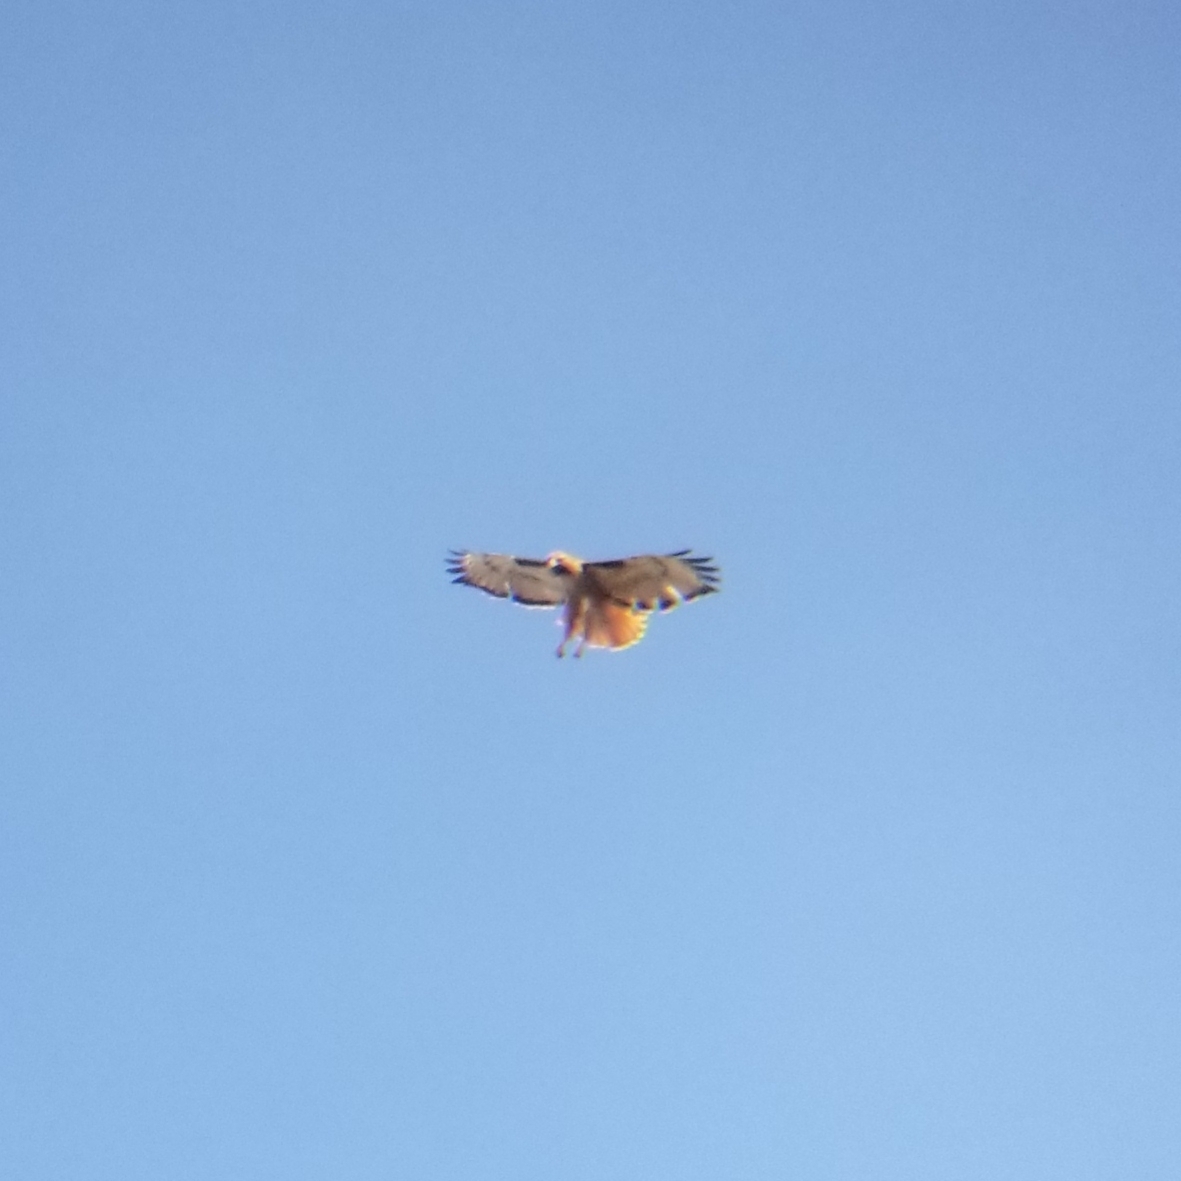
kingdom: Animalia
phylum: Chordata
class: Aves
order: Accipitriformes
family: Accipitridae
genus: Buteo
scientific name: Buteo jamaicensis
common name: Red-tailed hawk
